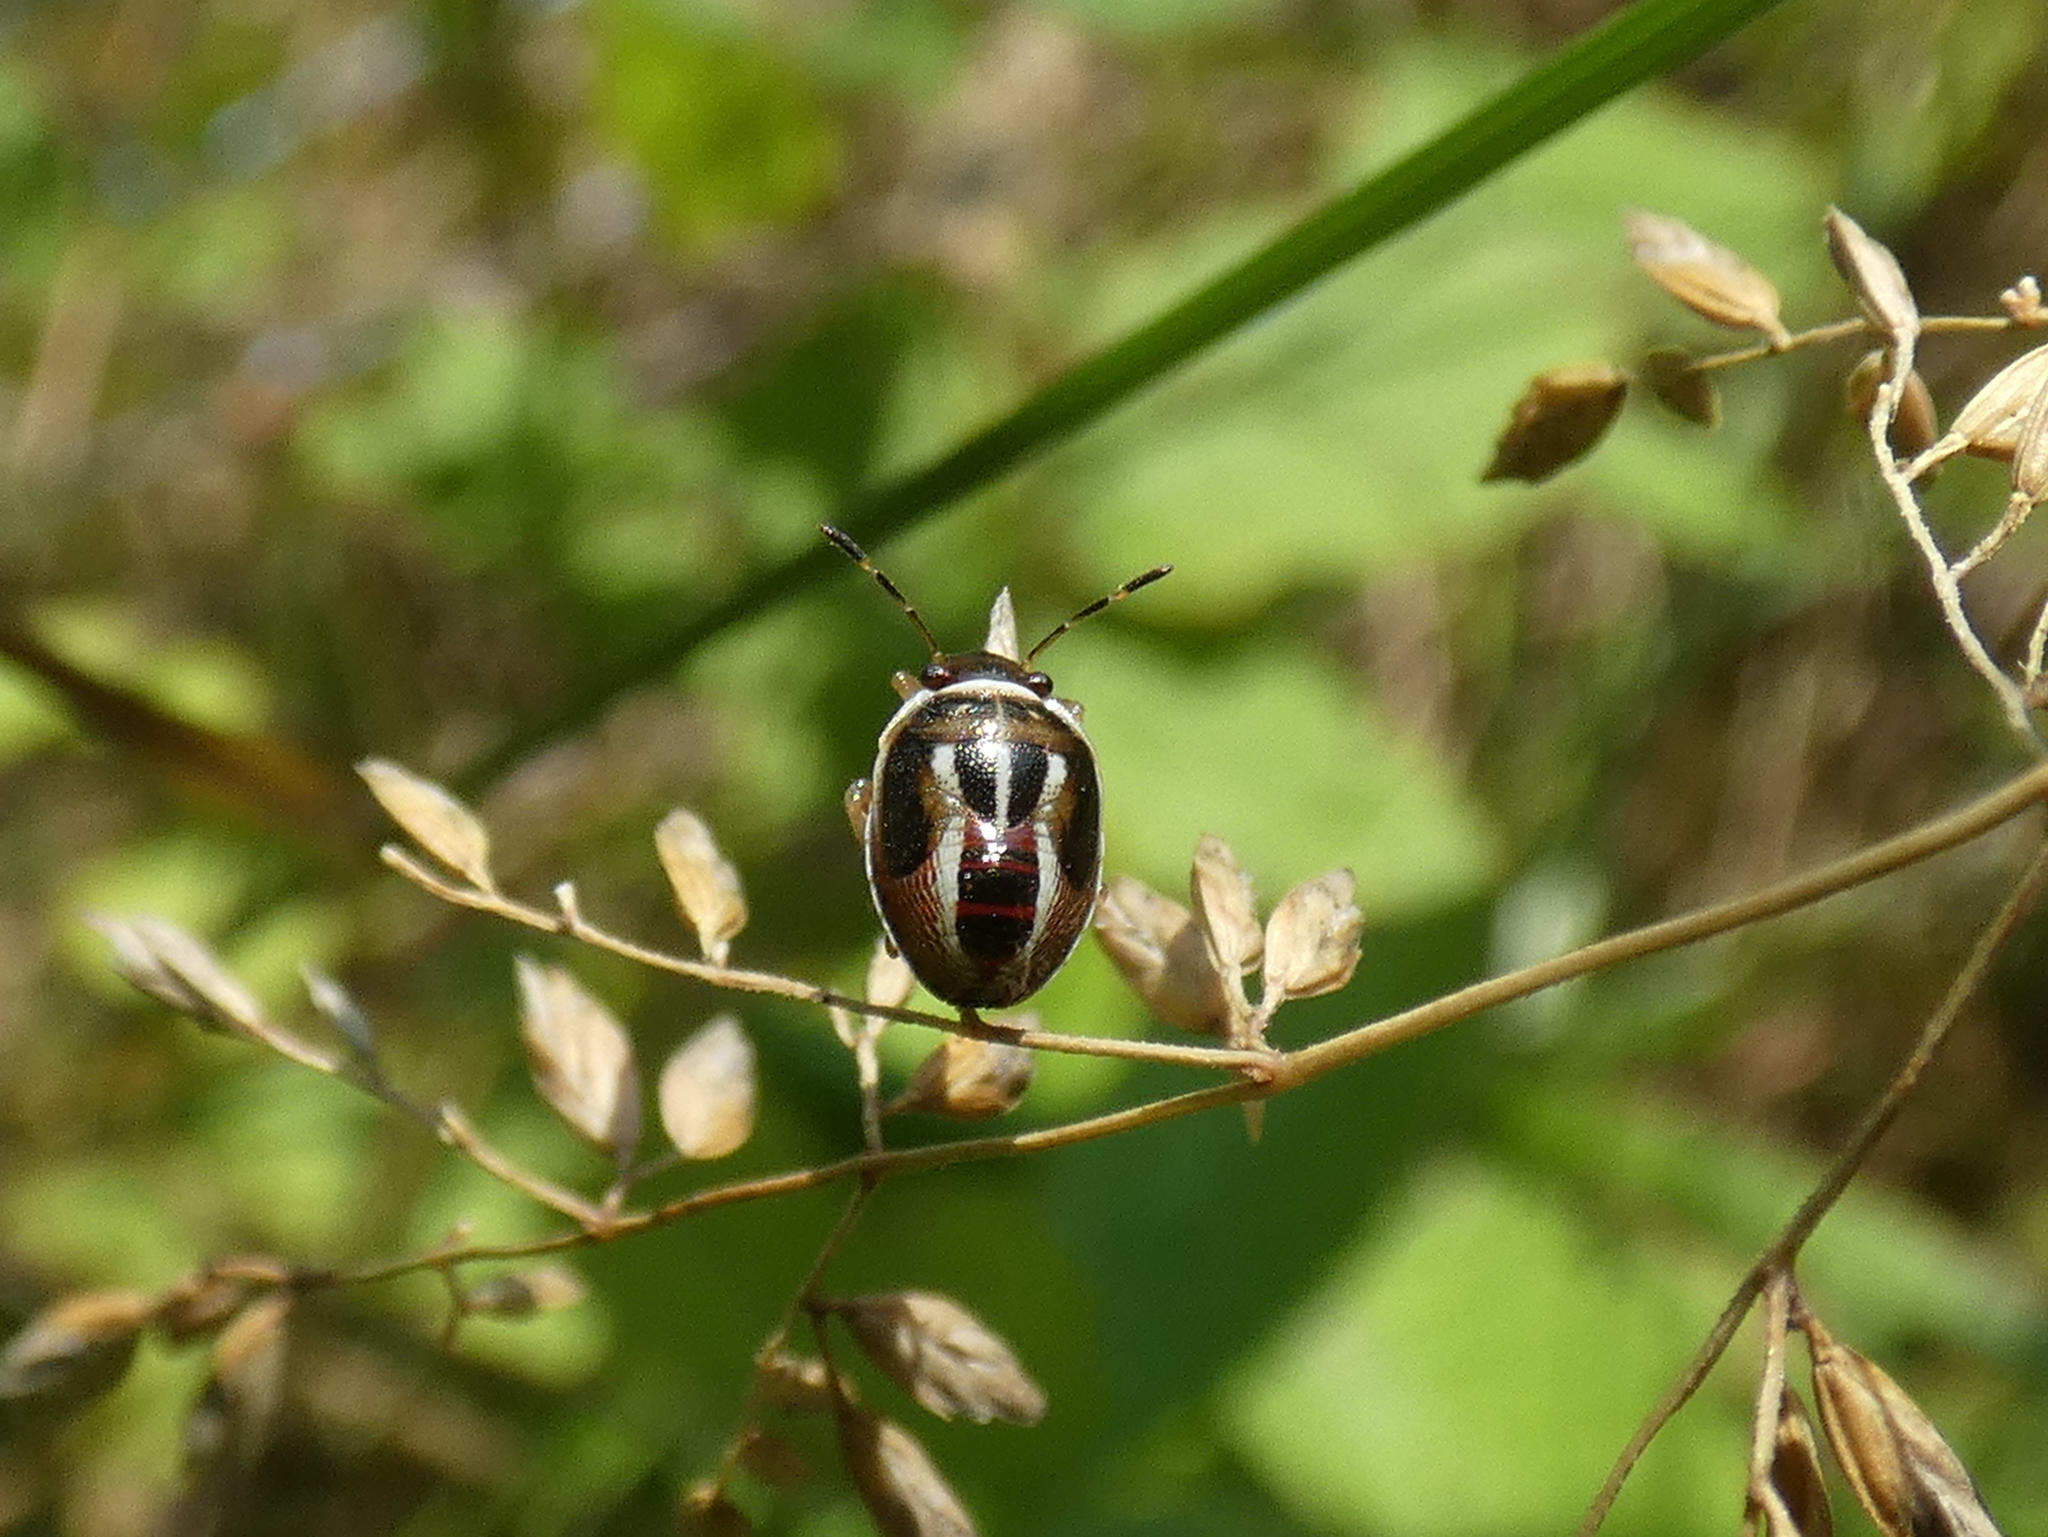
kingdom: Animalia
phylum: Arthropoda
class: Insecta
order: Hemiptera
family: Pentatomidae
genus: Mormidea
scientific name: Mormidea lugens
